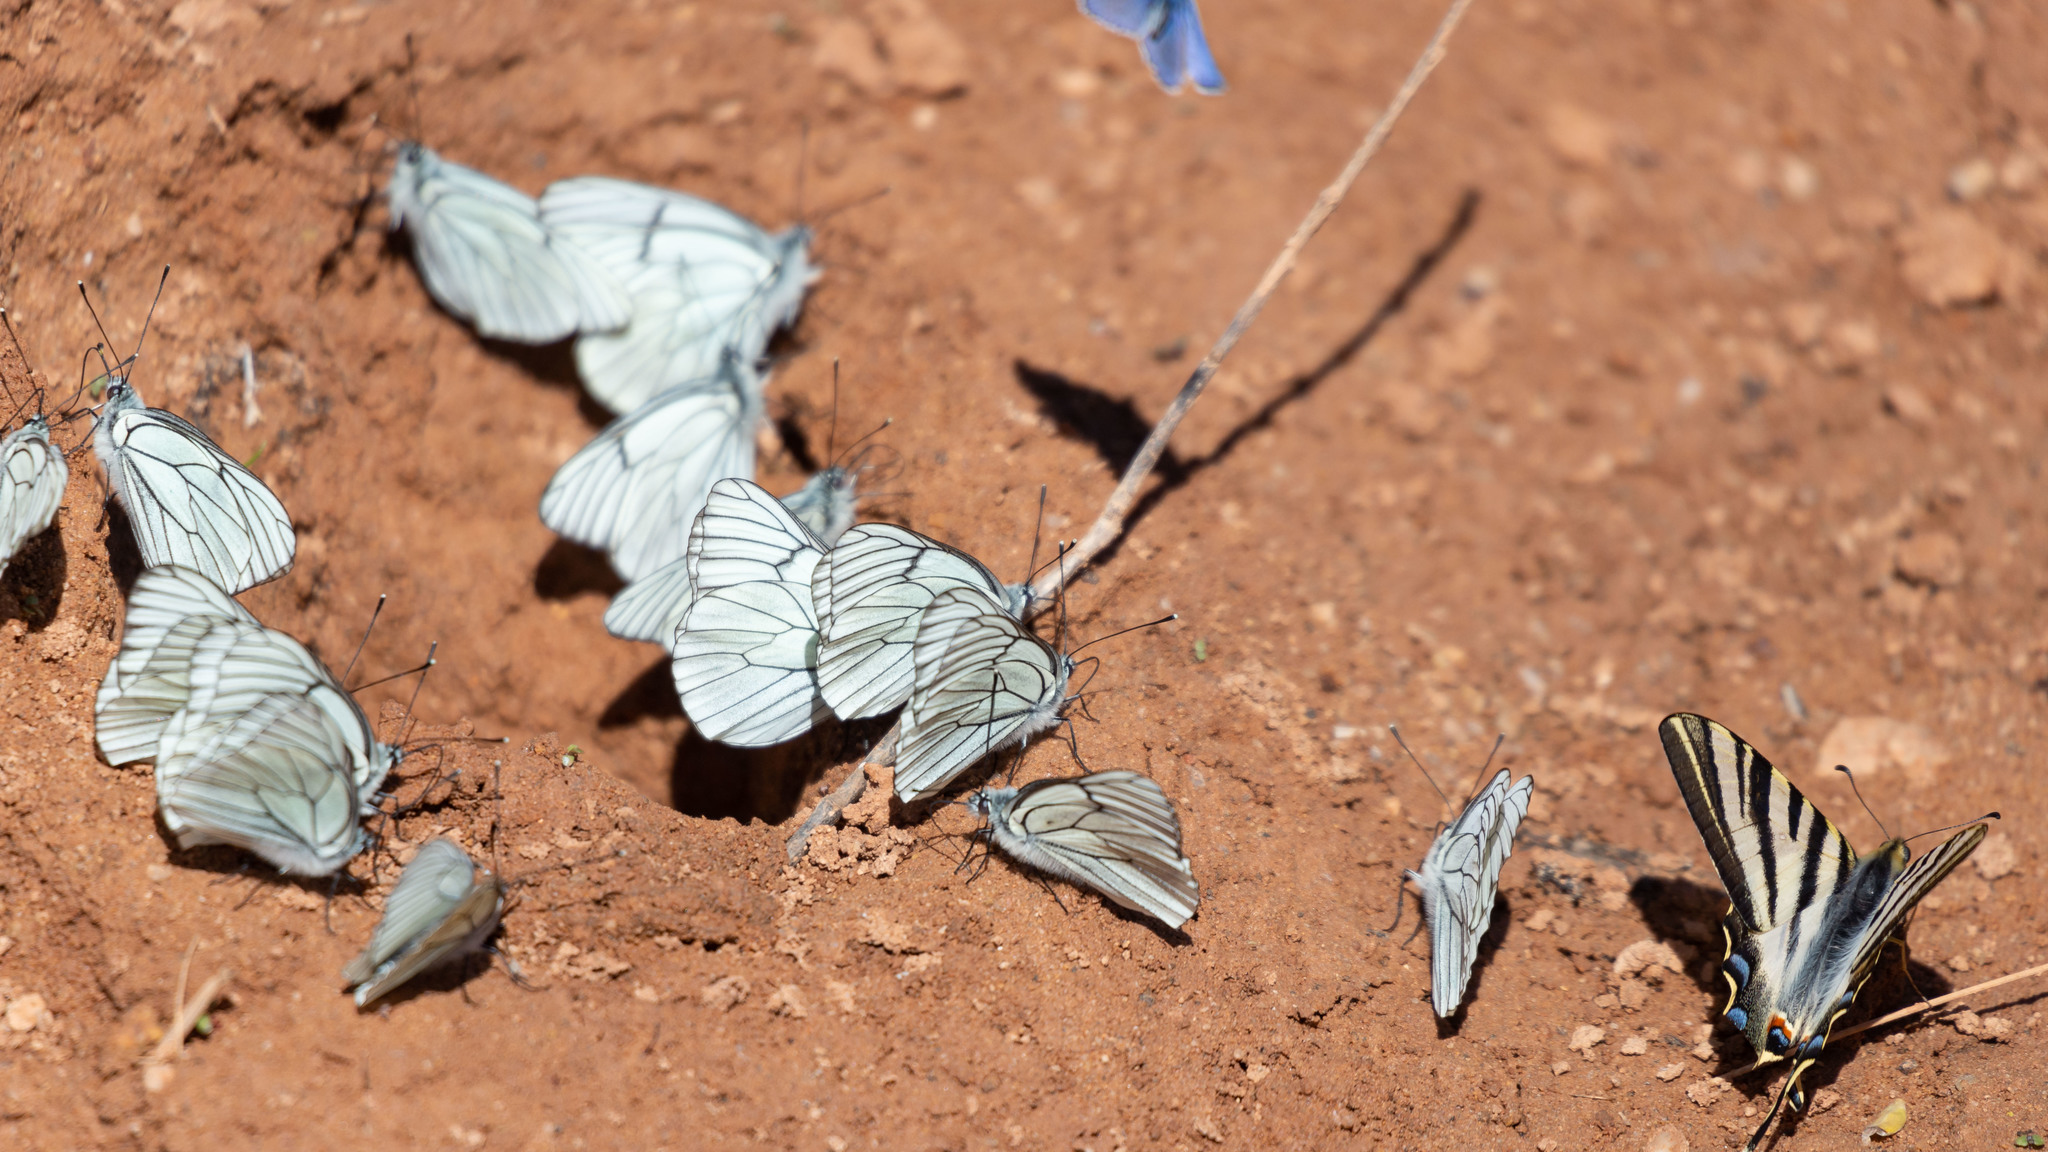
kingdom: Animalia
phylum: Arthropoda
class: Insecta
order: Lepidoptera
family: Pieridae
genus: Aporia
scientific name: Aporia crataegi
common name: Black-veined white
